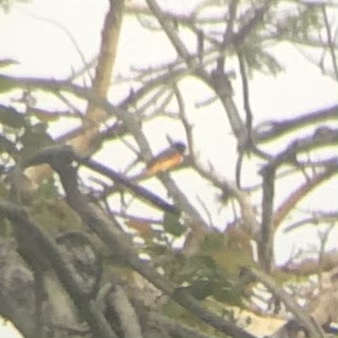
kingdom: Animalia
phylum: Chordata
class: Aves
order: Passeriformes
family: Campephagidae
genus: Pericrocotus
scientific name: Pericrocotus cinnamomeus
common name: Small minivet
